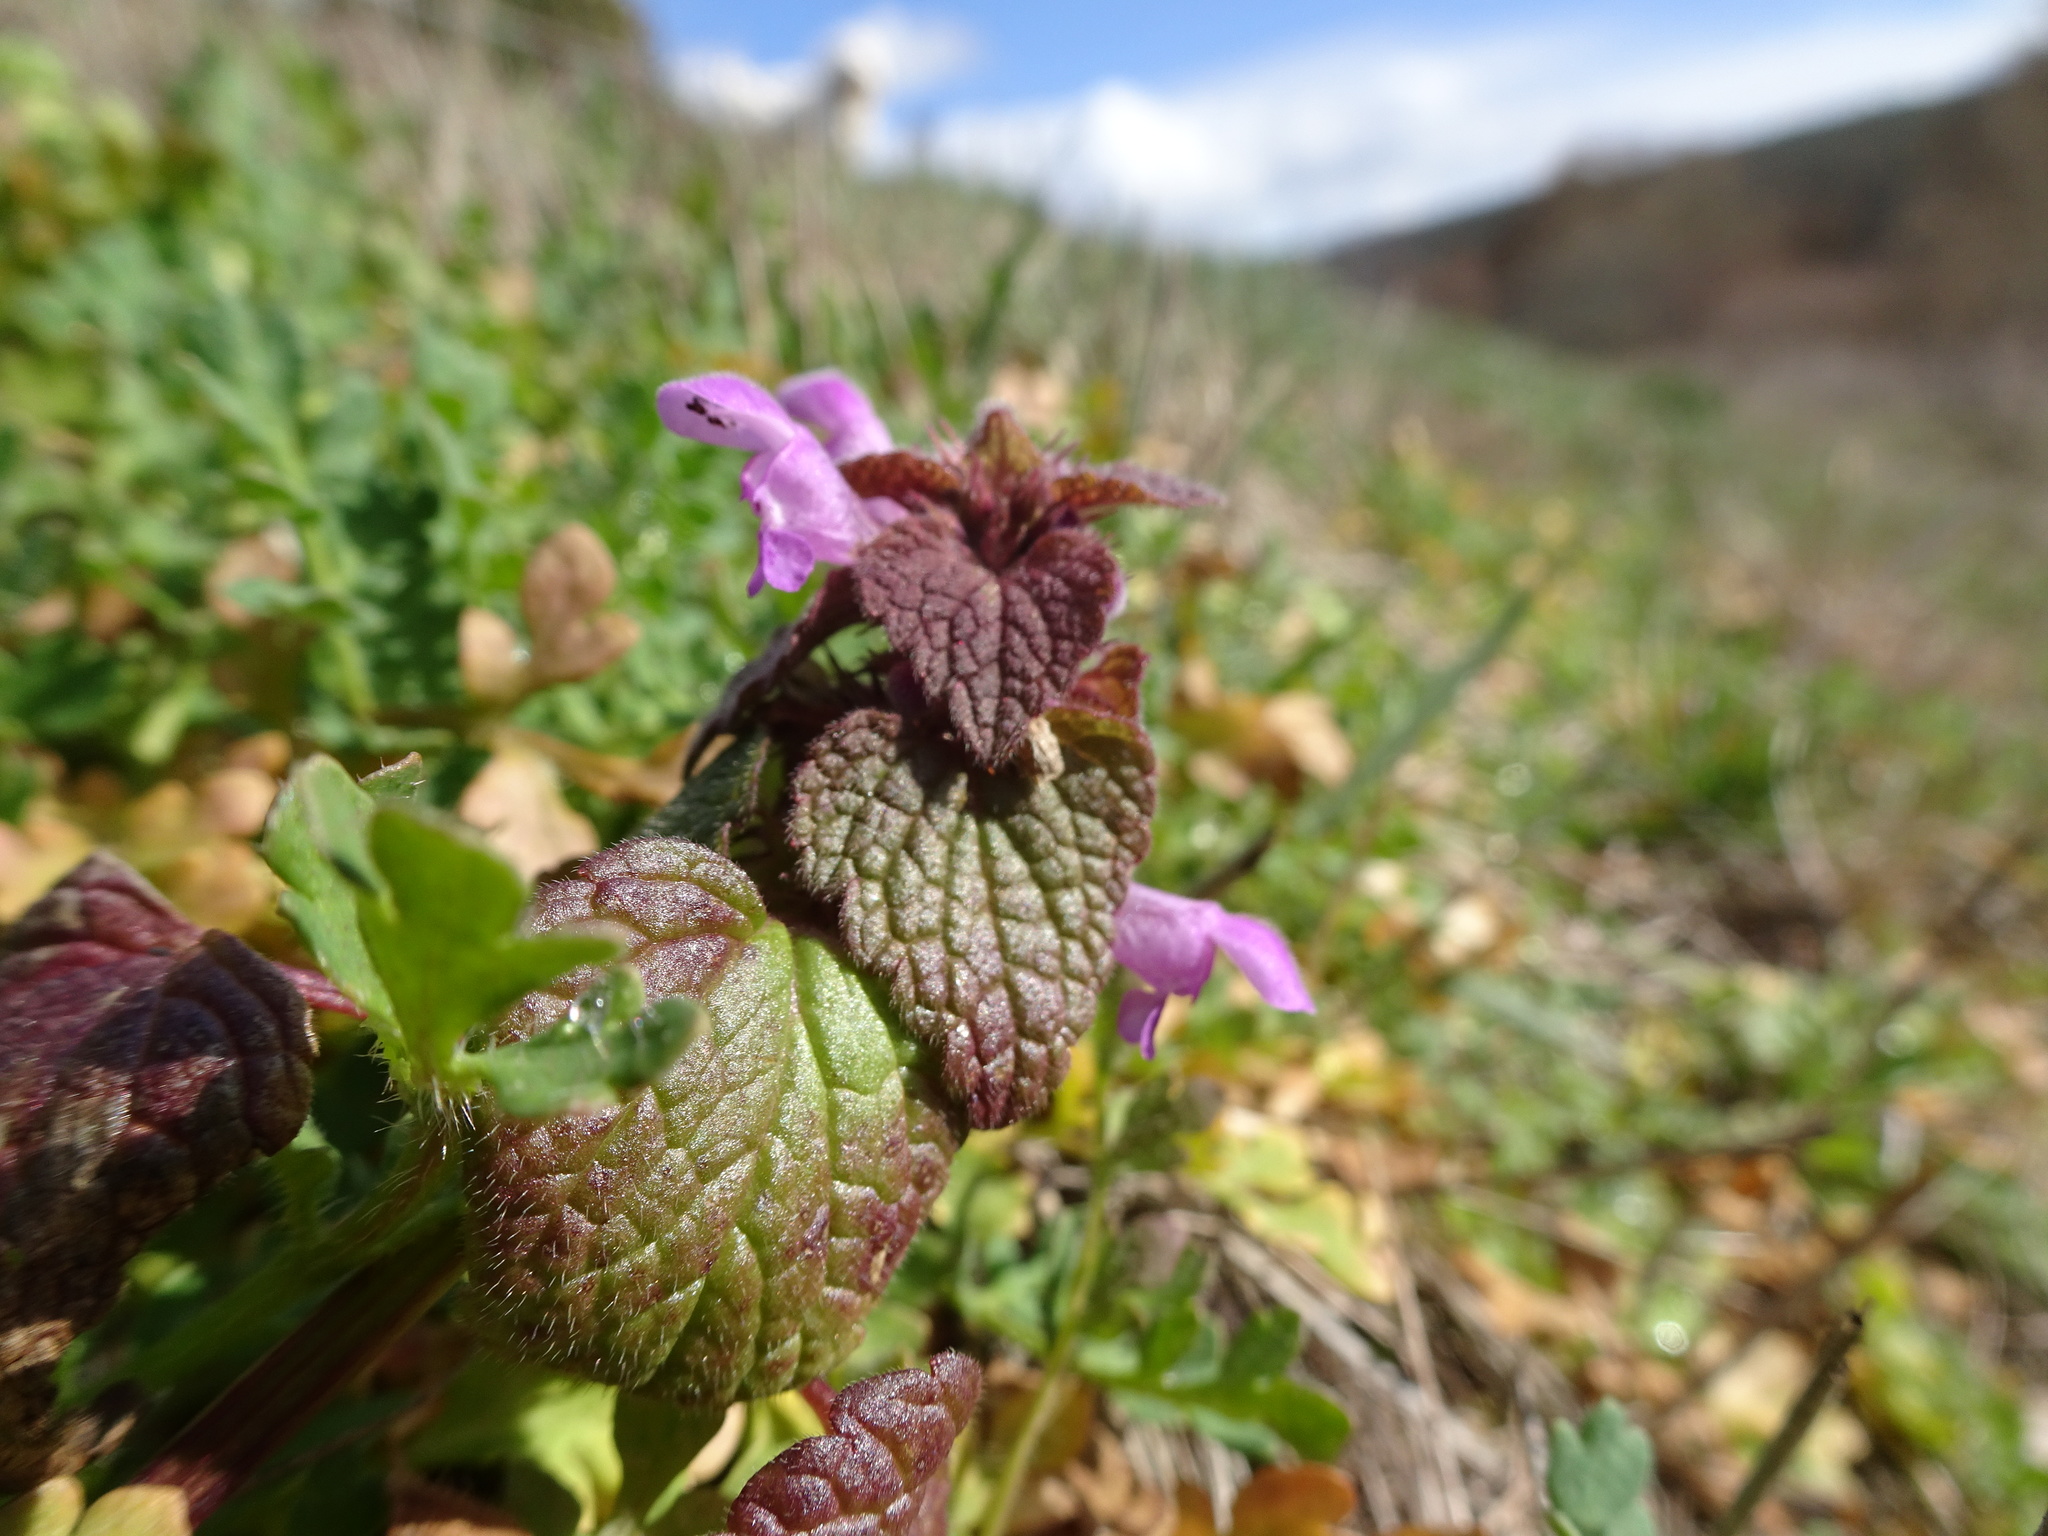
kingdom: Plantae
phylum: Tracheophyta
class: Magnoliopsida
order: Lamiales
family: Lamiaceae
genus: Lamium
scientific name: Lamium purpureum
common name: Red dead-nettle
